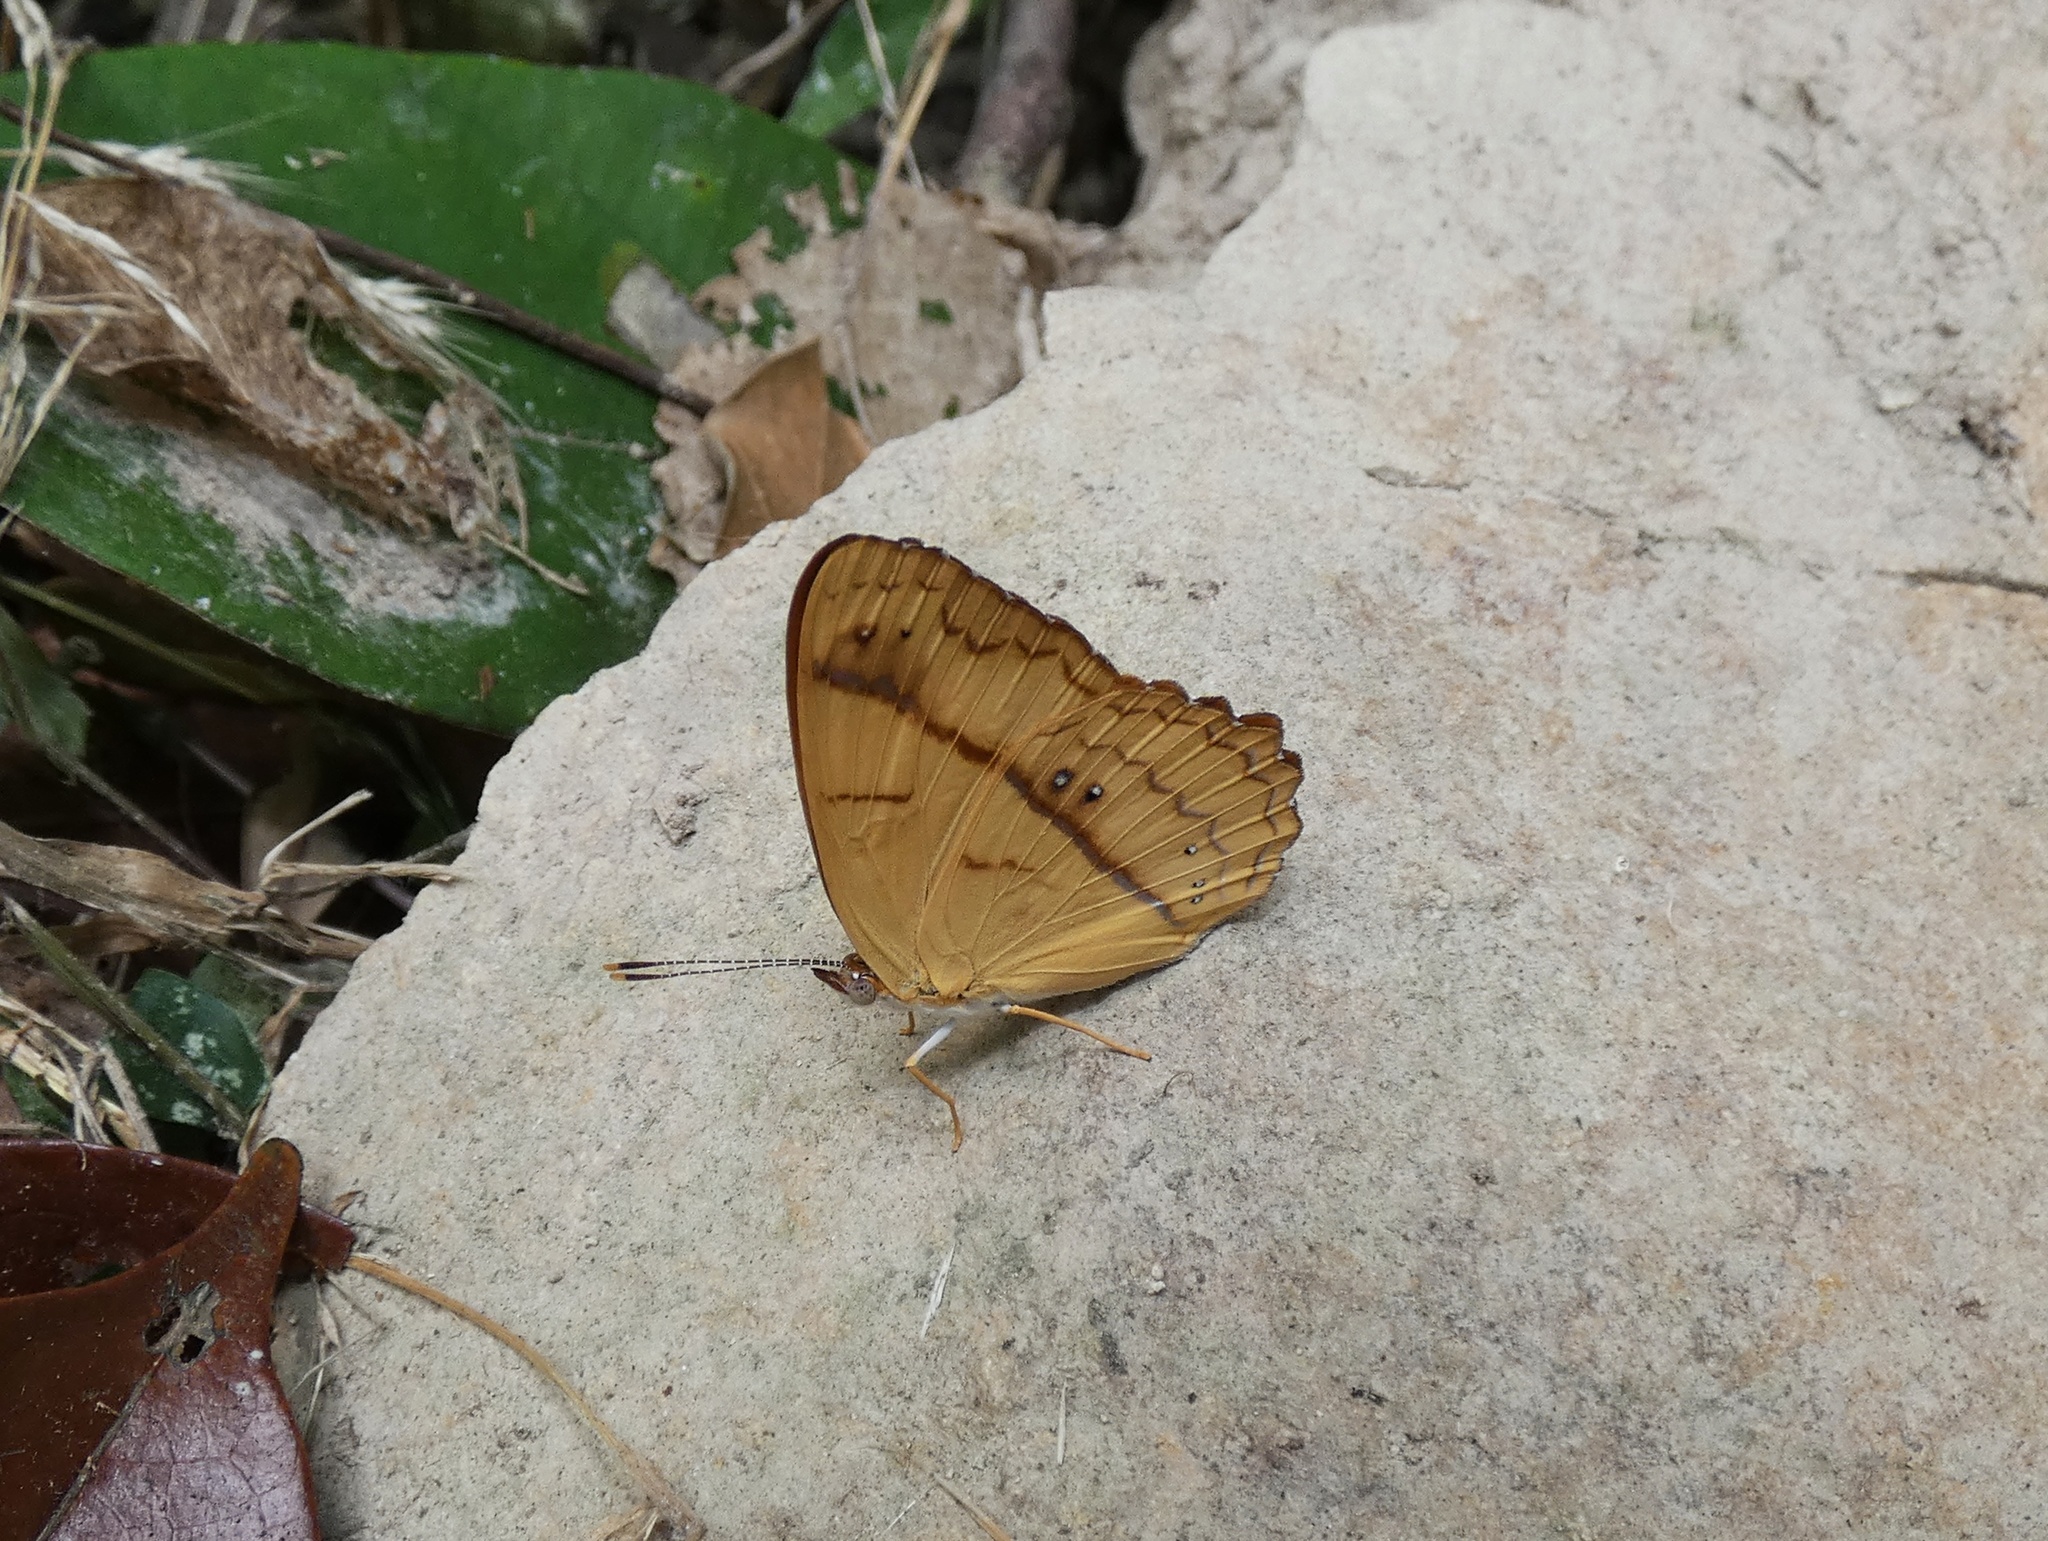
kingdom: Animalia
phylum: Arthropoda
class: Insecta
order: Lepidoptera
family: Nymphalidae
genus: Nica
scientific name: Nica flavilla
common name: Mandarin nica
